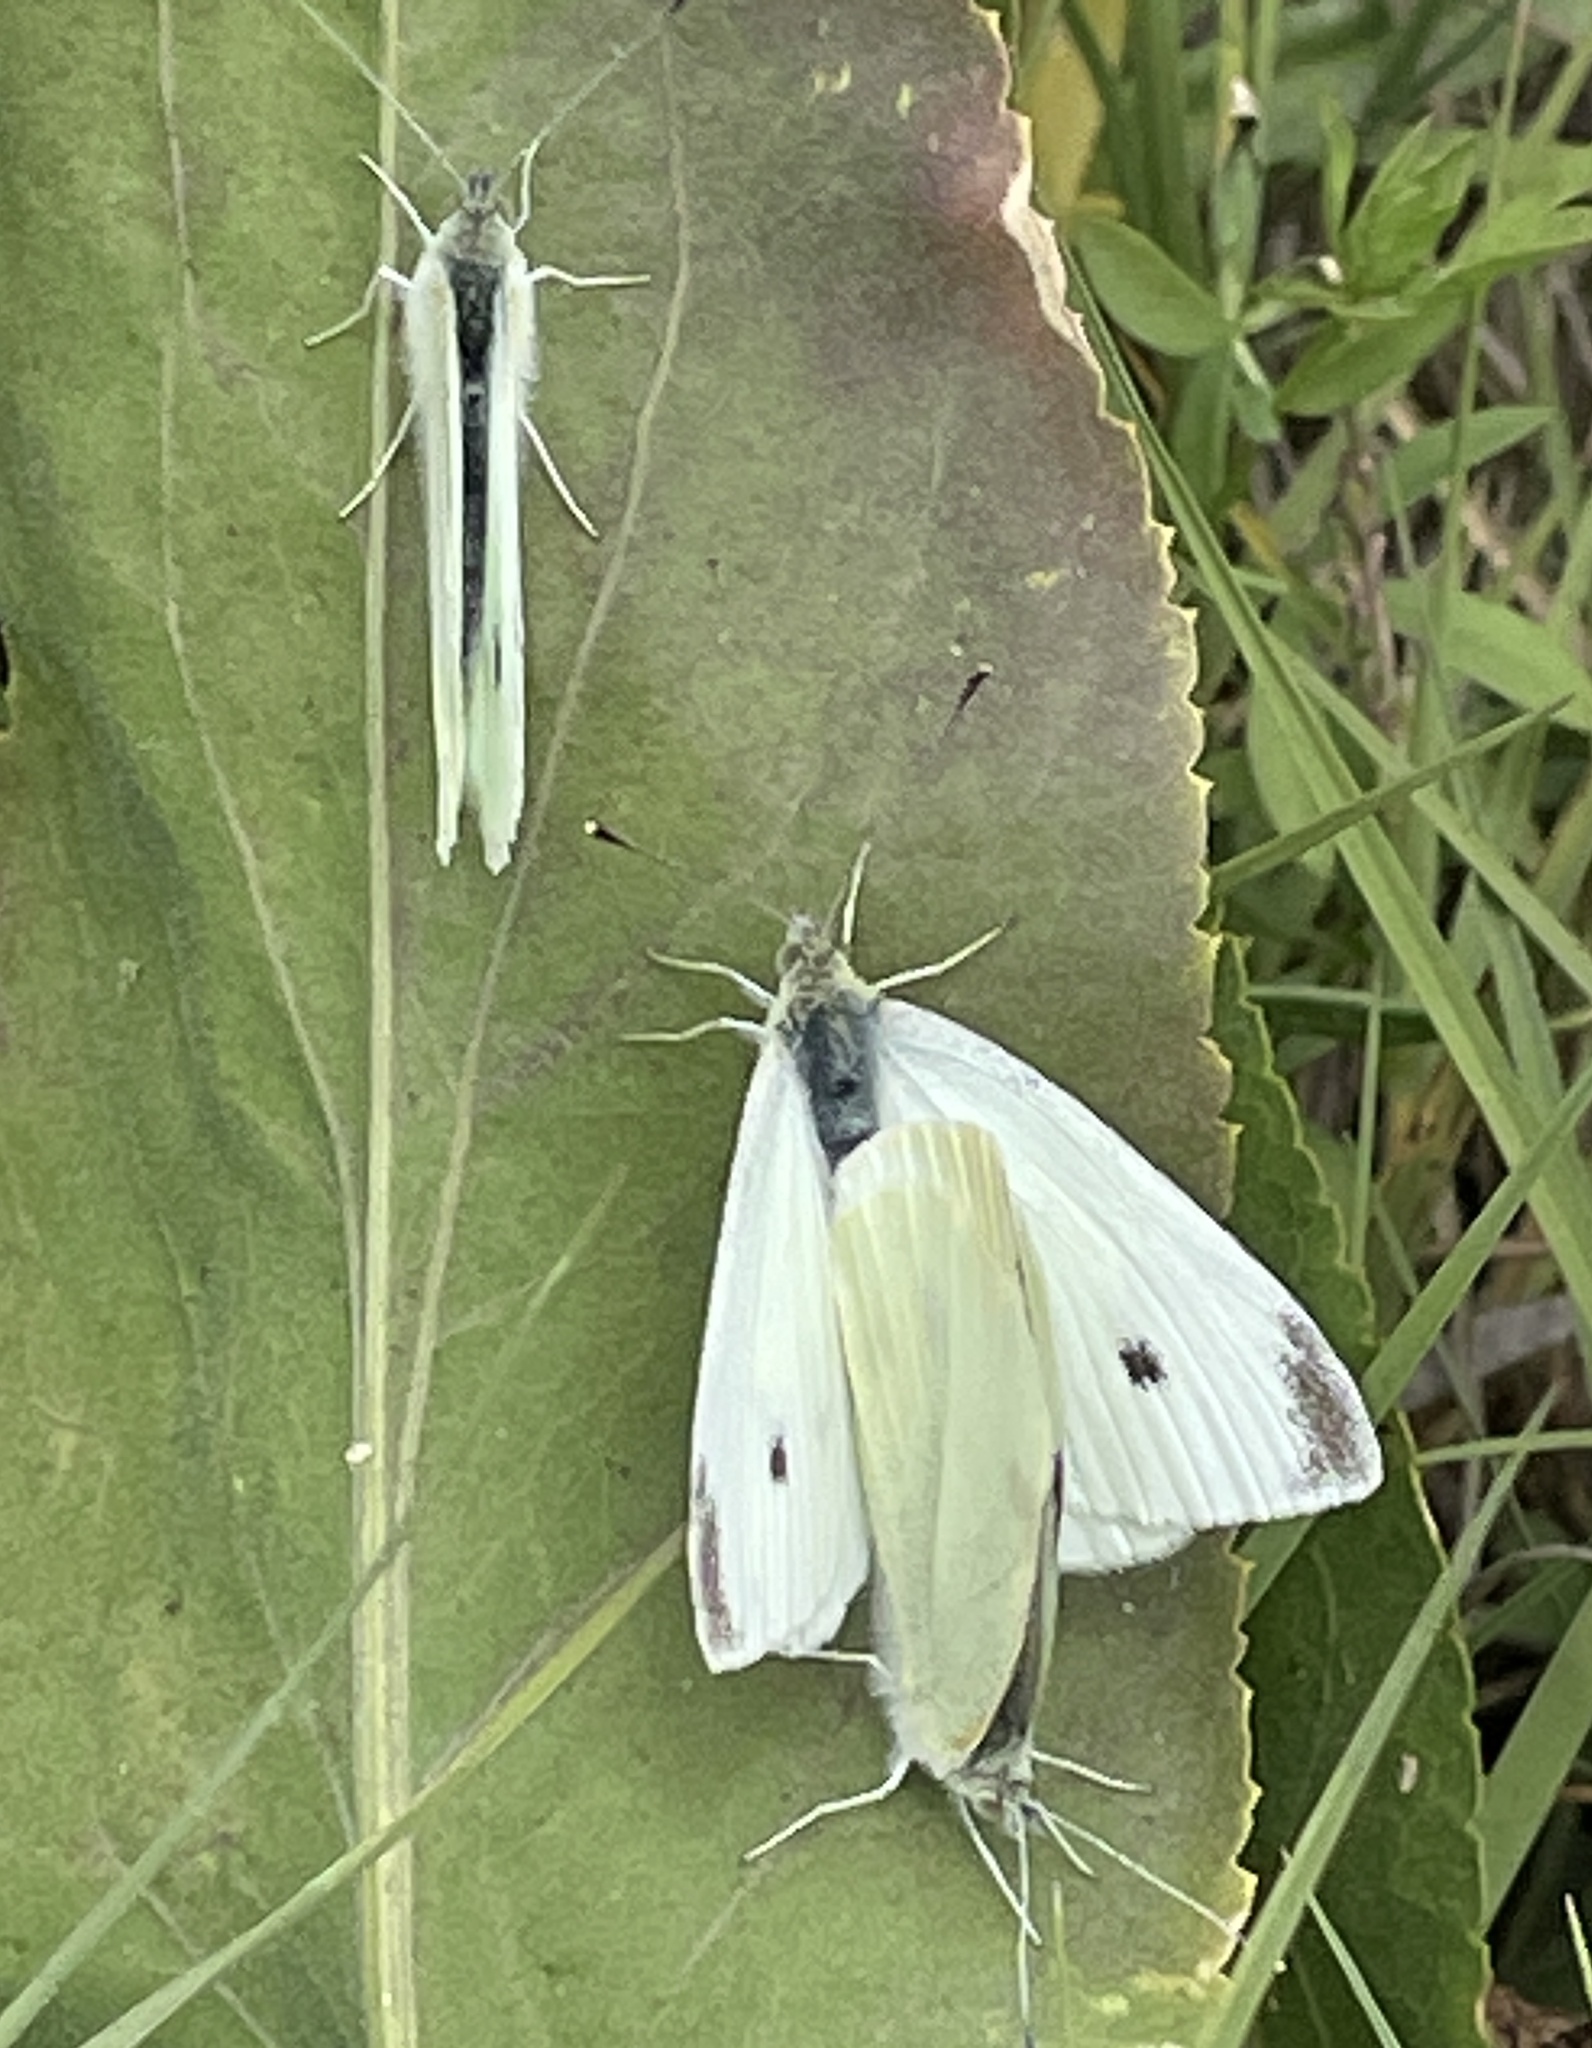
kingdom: Animalia
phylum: Arthropoda
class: Insecta
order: Lepidoptera
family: Pieridae
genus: Pieris
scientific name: Pieris rapae
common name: Small white
